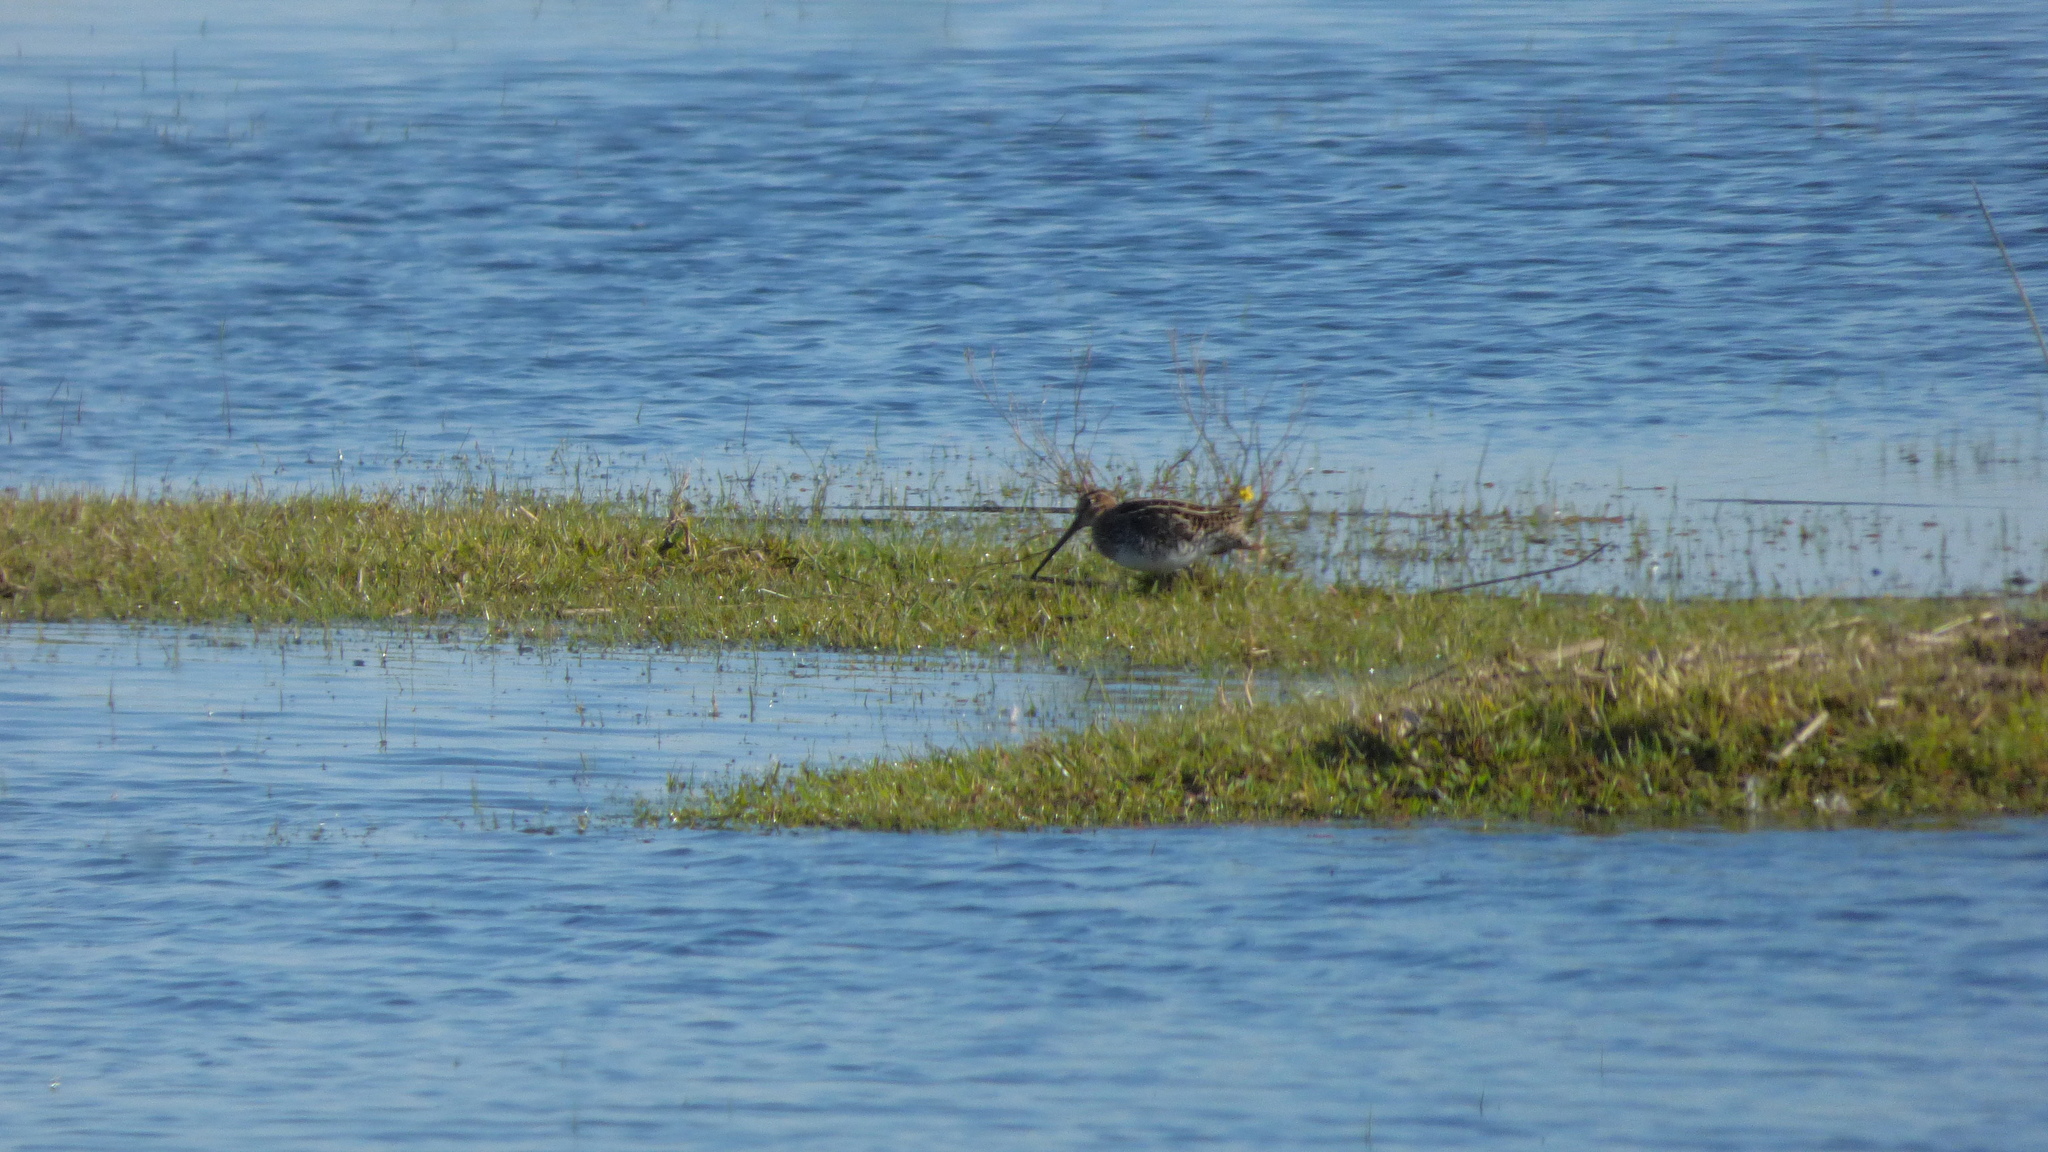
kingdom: Animalia
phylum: Chordata
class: Aves
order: Charadriiformes
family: Scolopacidae
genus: Gallinago
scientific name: Gallinago paraguaiae
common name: South american snipe
